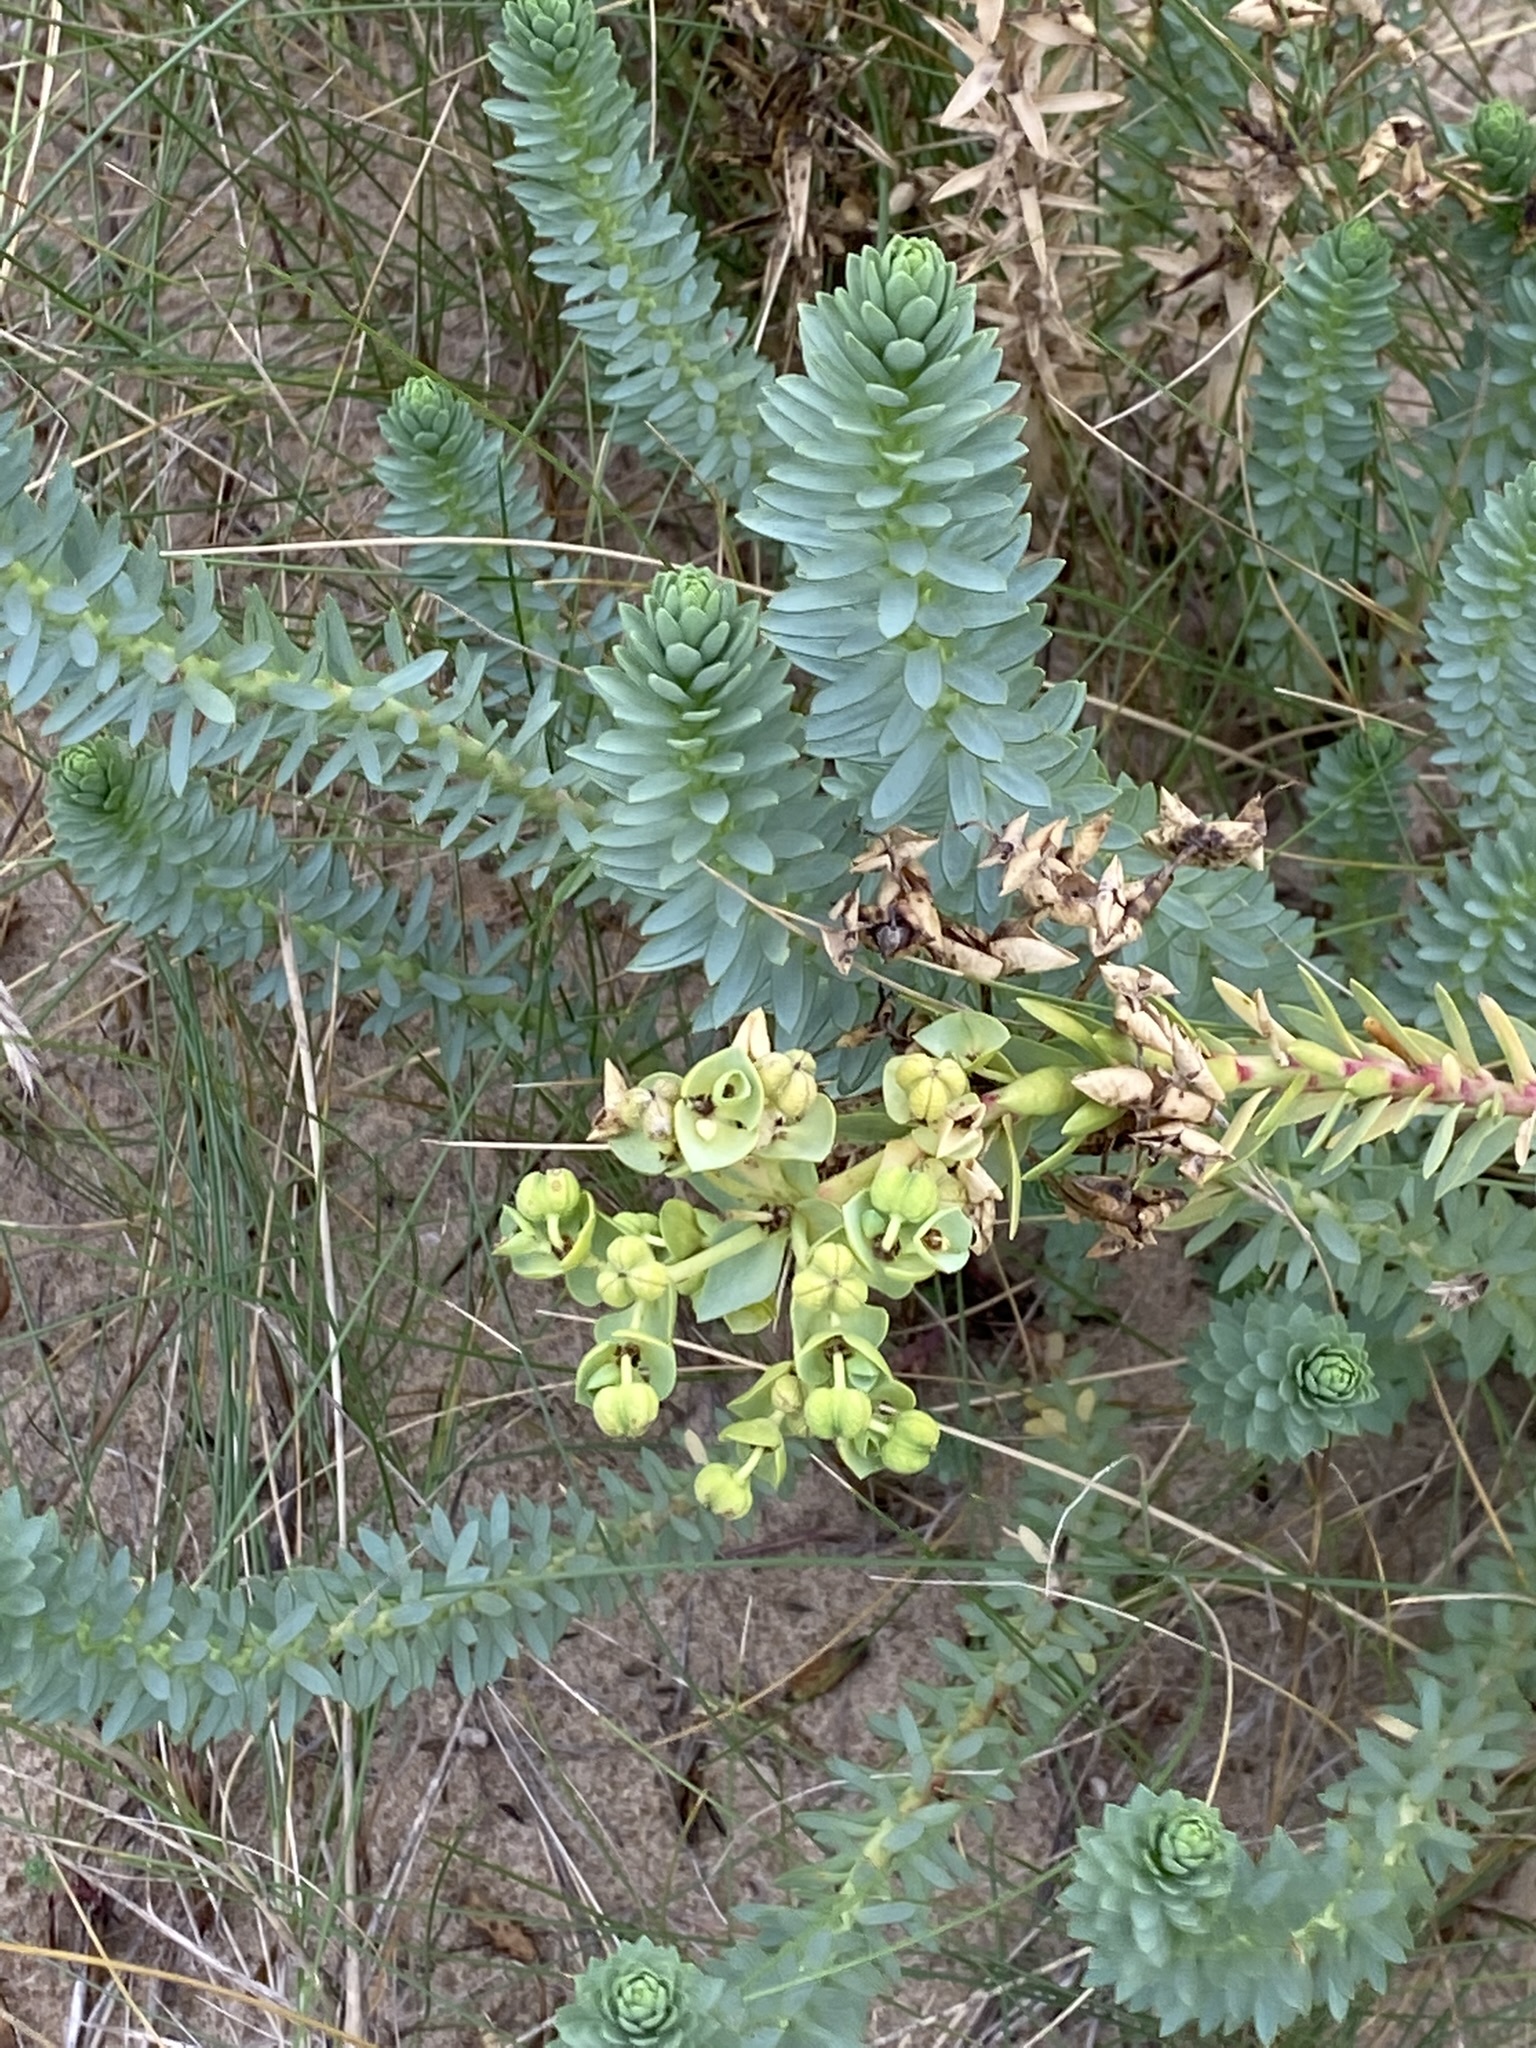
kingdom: Plantae
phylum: Tracheophyta
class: Magnoliopsida
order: Malpighiales
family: Euphorbiaceae
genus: Euphorbia
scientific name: Euphorbia paralias
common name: Sea spurge
